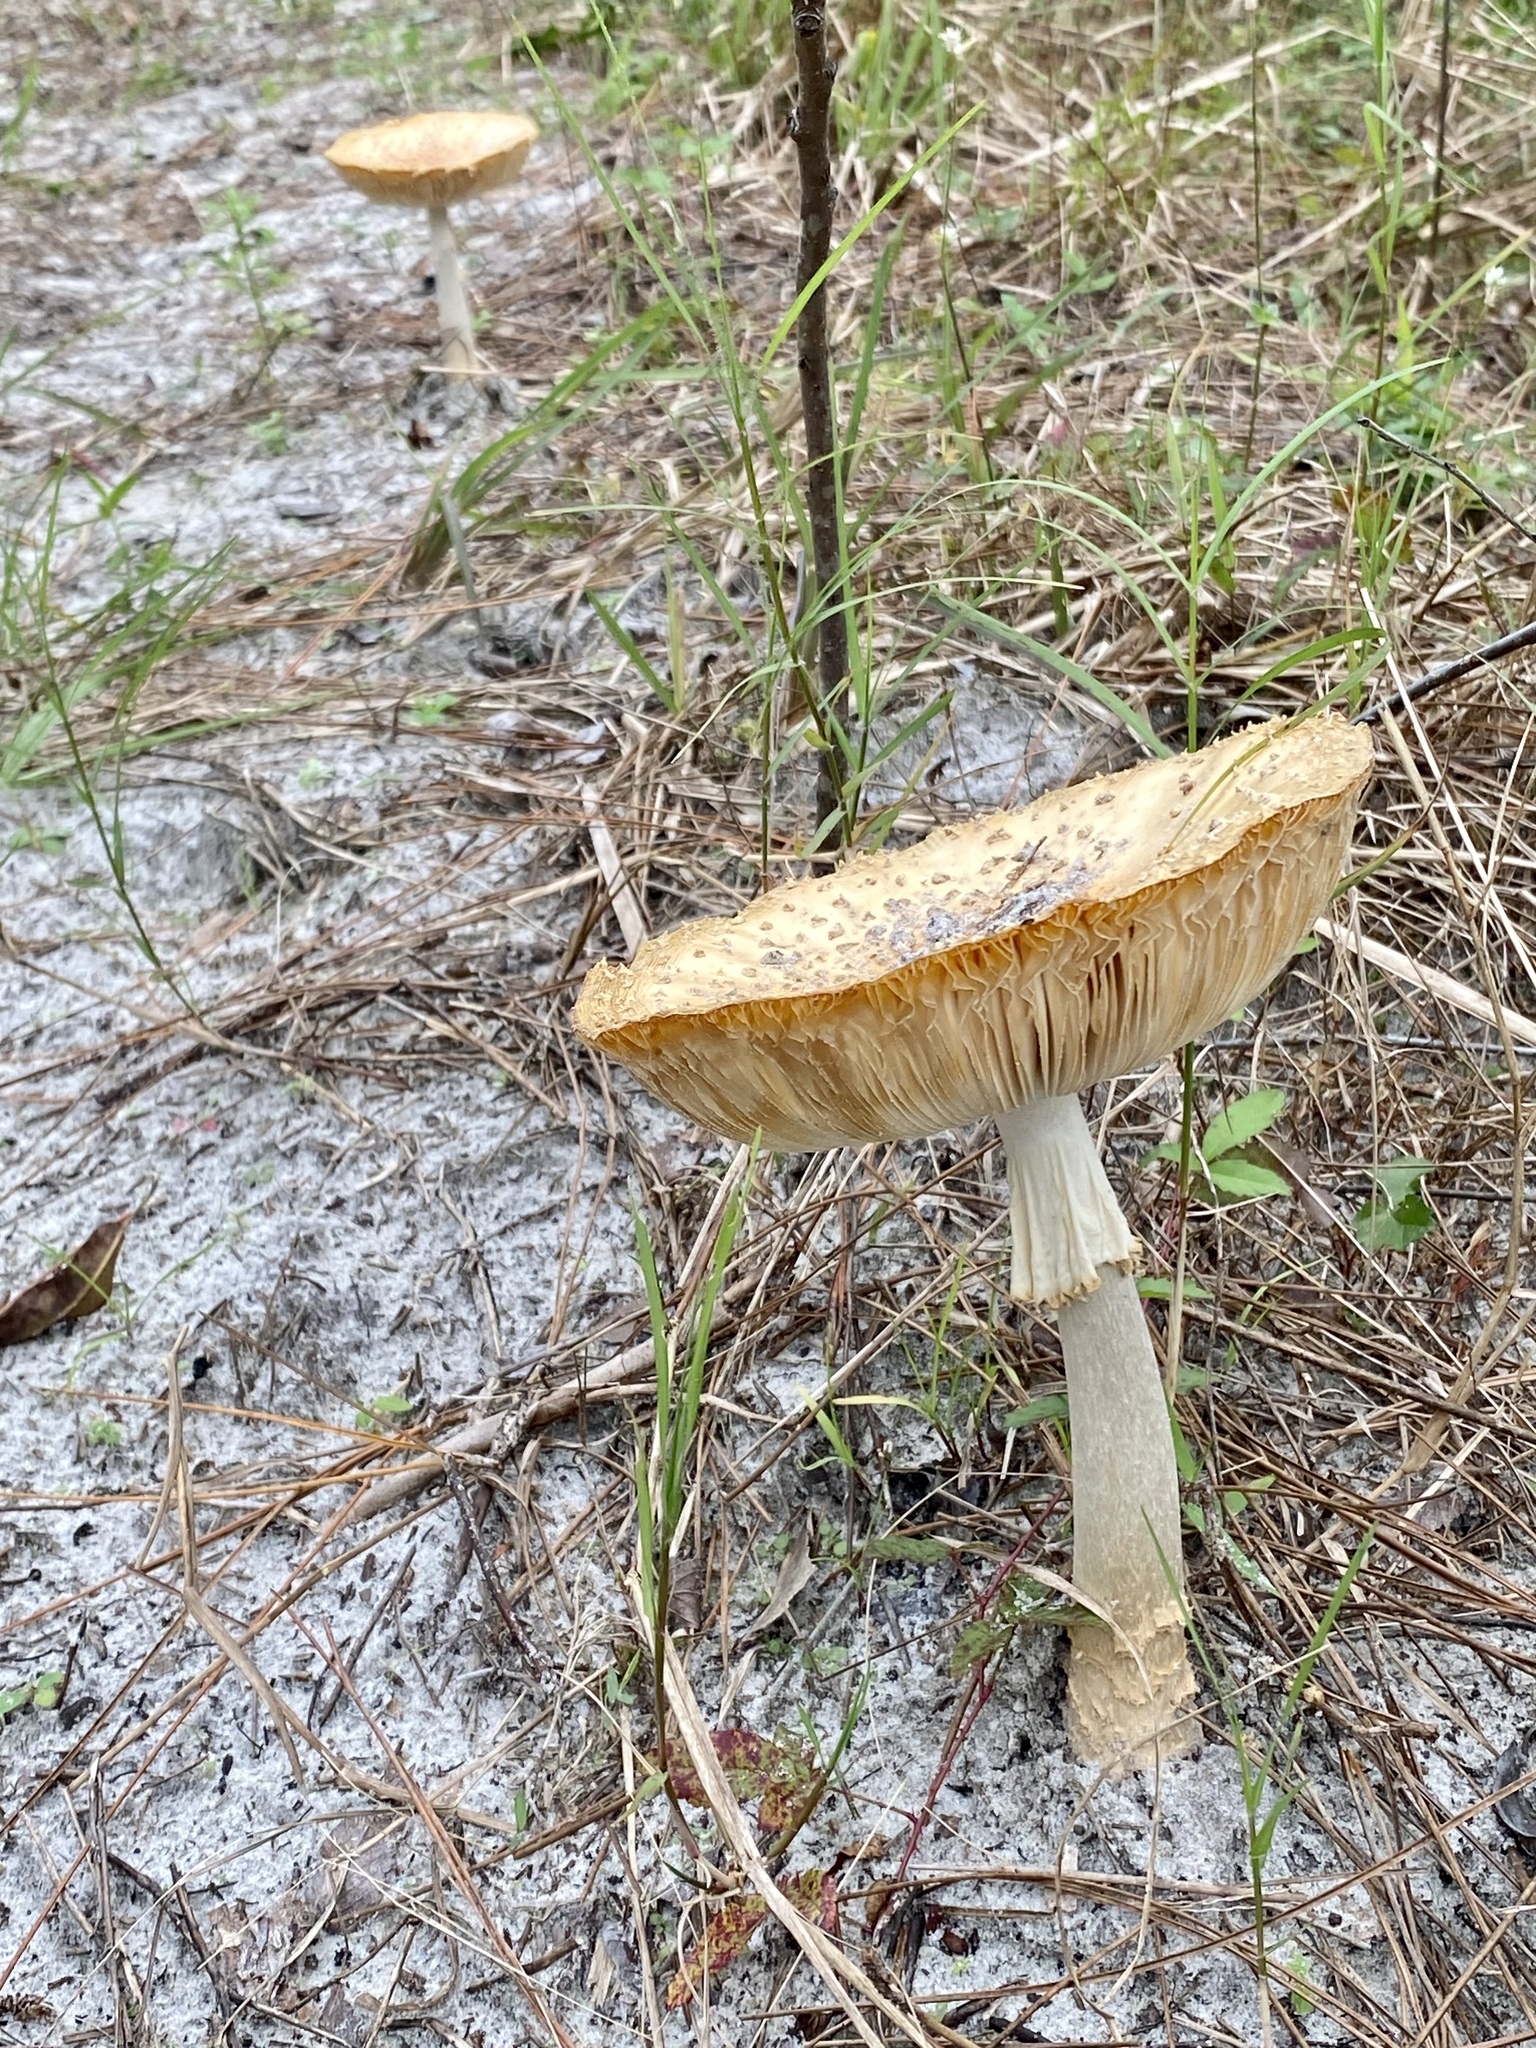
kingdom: Fungi
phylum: Basidiomycota
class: Agaricomycetes
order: Agaricales
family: Amanitaceae
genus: Amanita
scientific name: Amanita persicina
